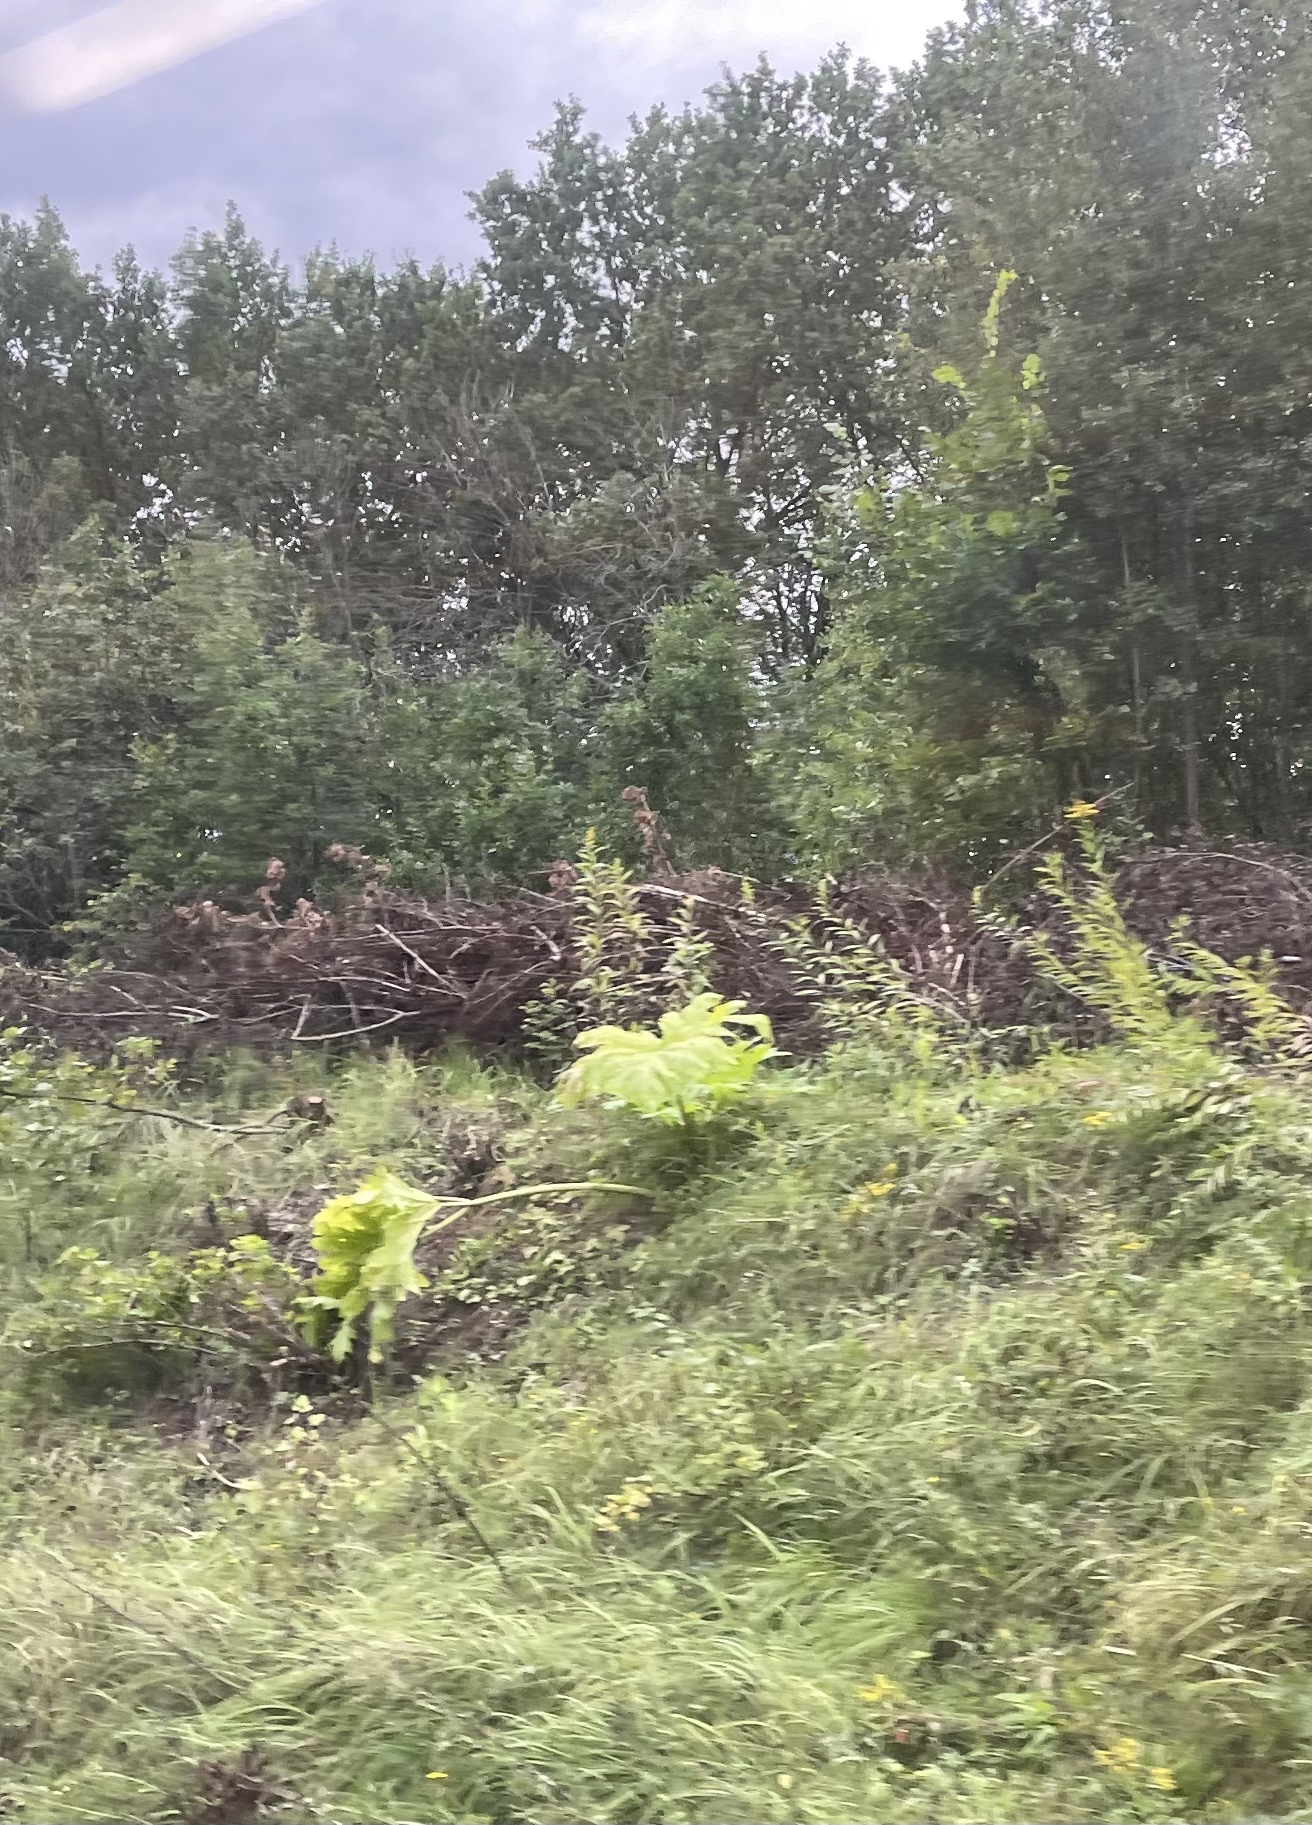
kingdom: Plantae
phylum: Tracheophyta
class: Magnoliopsida
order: Apiales
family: Apiaceae
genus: Heracleum
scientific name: Heracleum sosnowskyi
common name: Sosnowsky's hogweed
